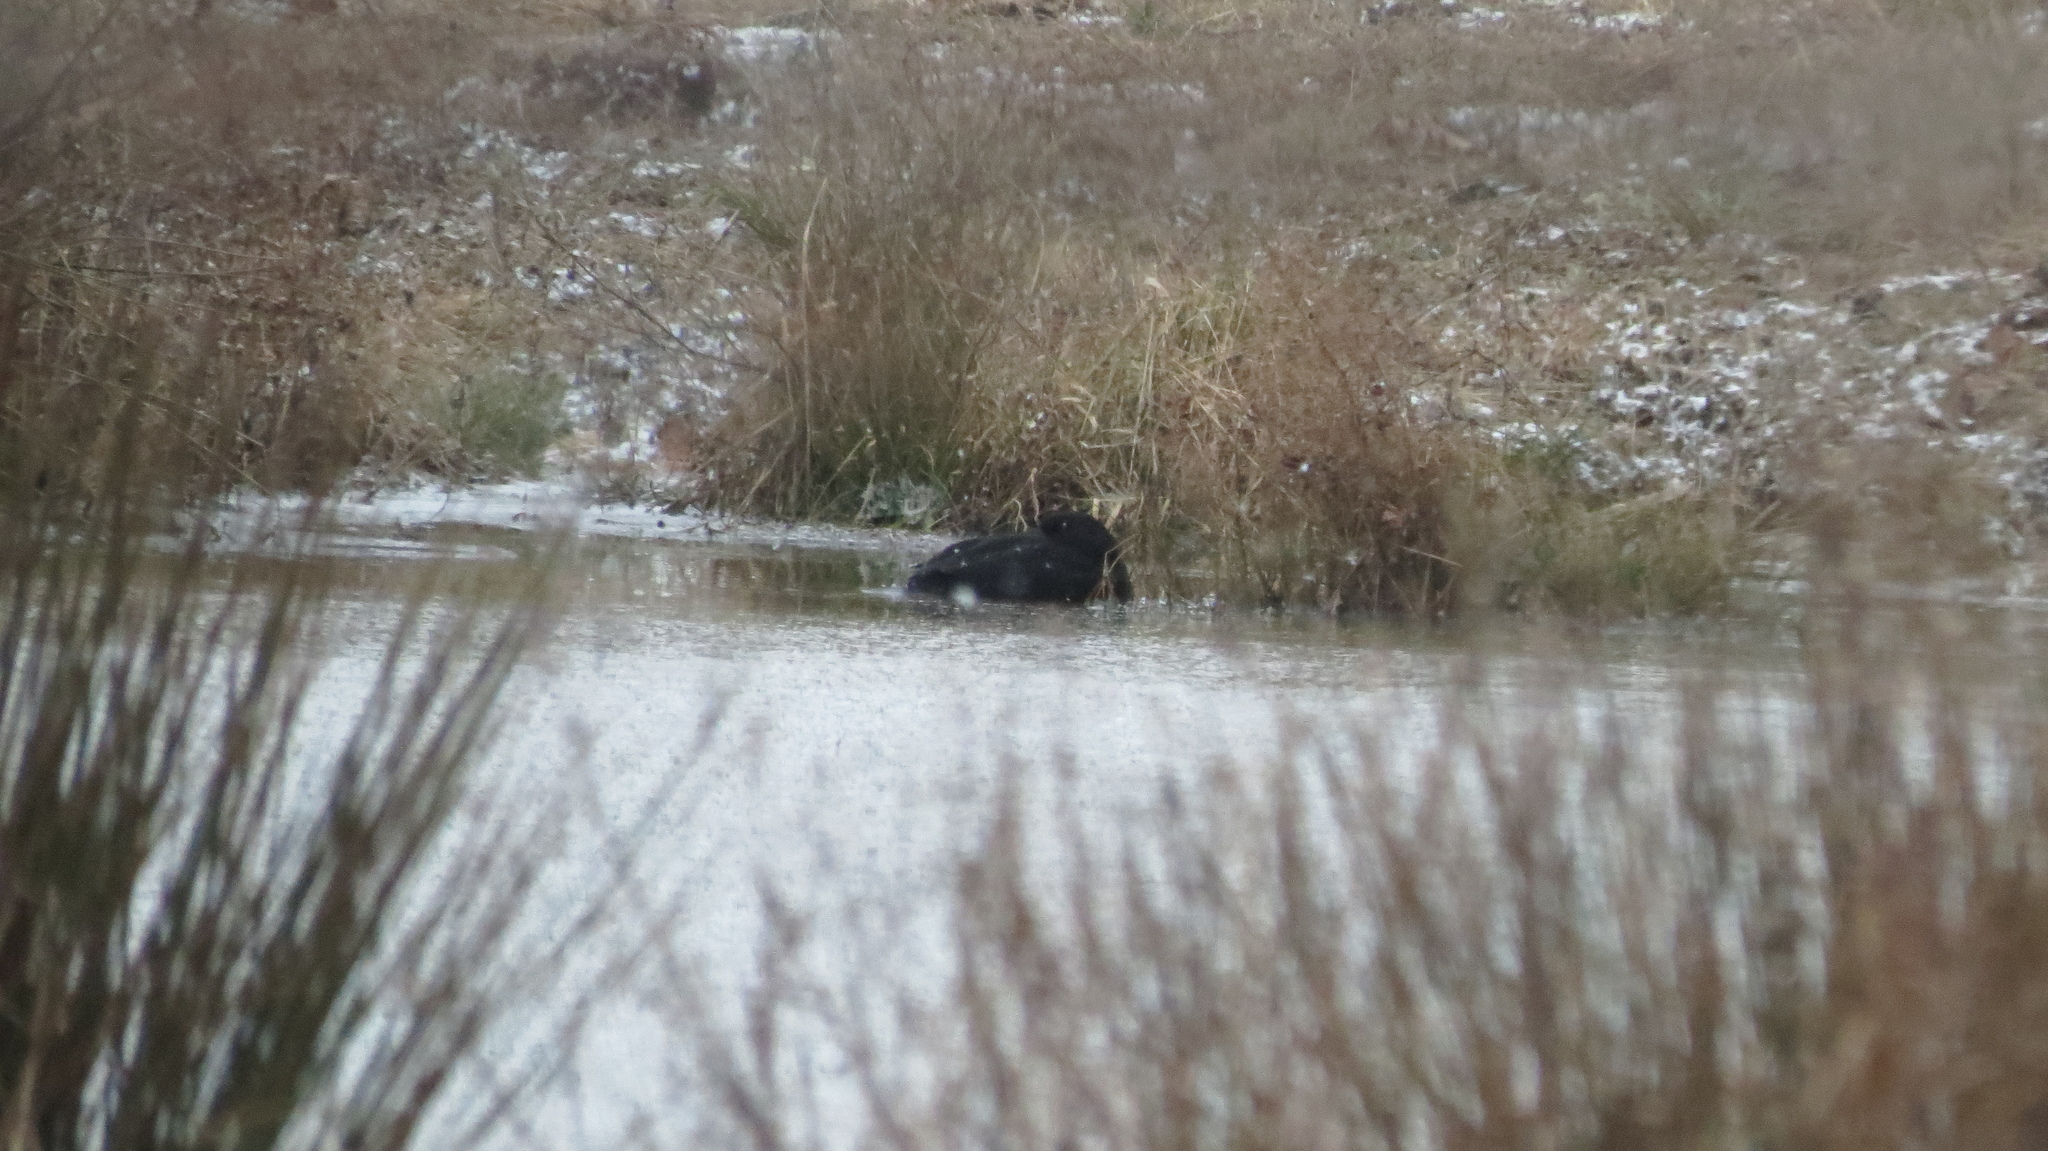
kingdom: Animalia
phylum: Chordata
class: Aves
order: Anseriformes
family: Anatidae
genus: Melanitta
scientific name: Melanitta americana
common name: Black scoter
